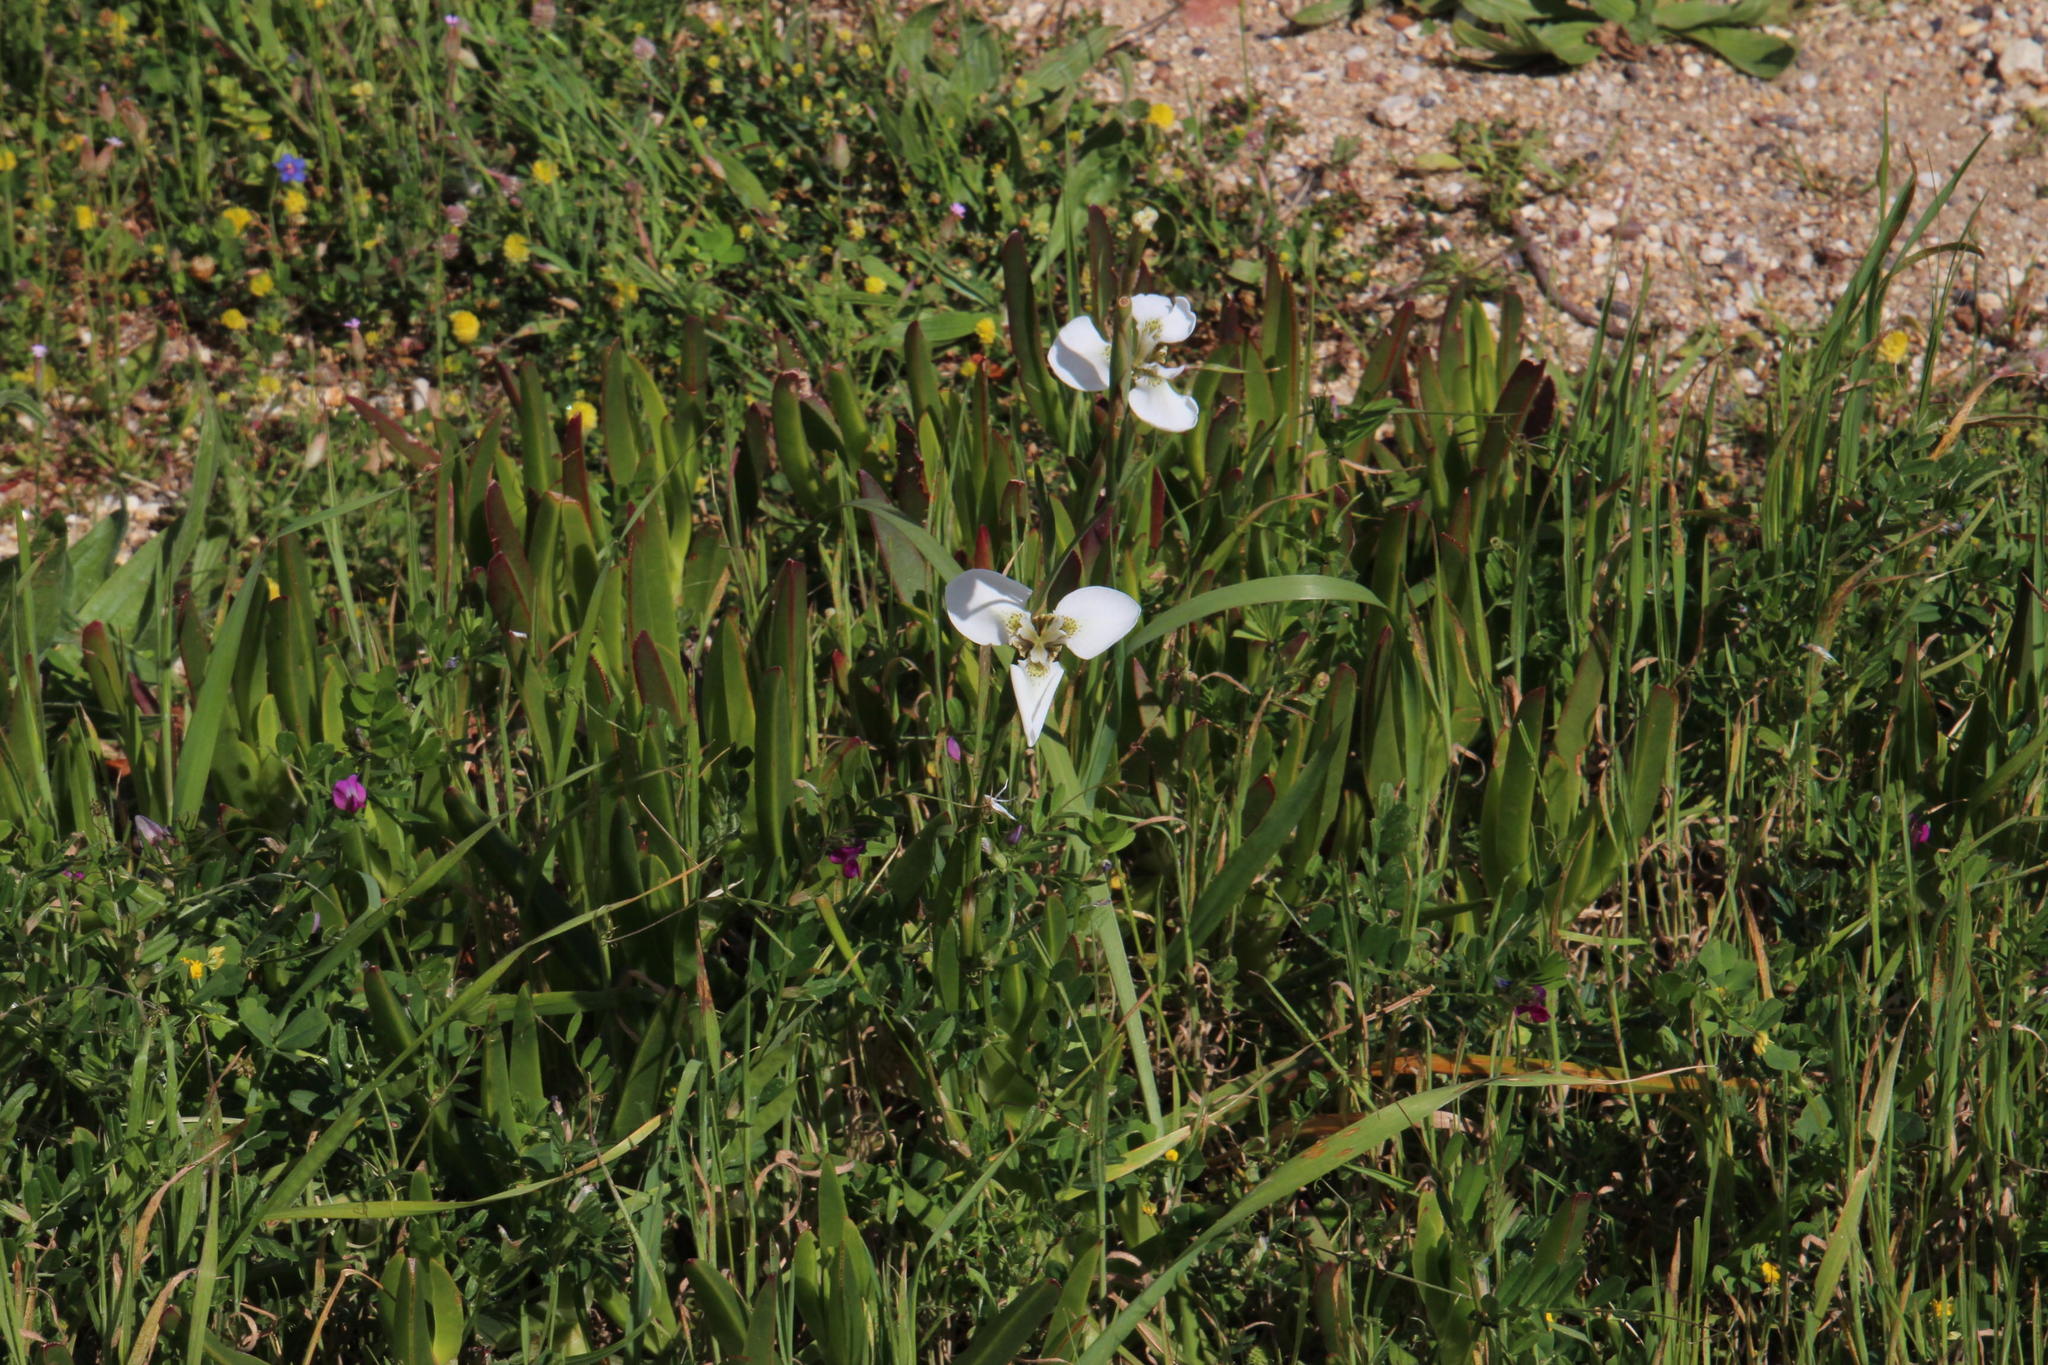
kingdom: Plantae
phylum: Tracheophyta
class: Liliopsida
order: Asparagales
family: Iridaceae
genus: Moraea
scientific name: Moraea tricuspidata
